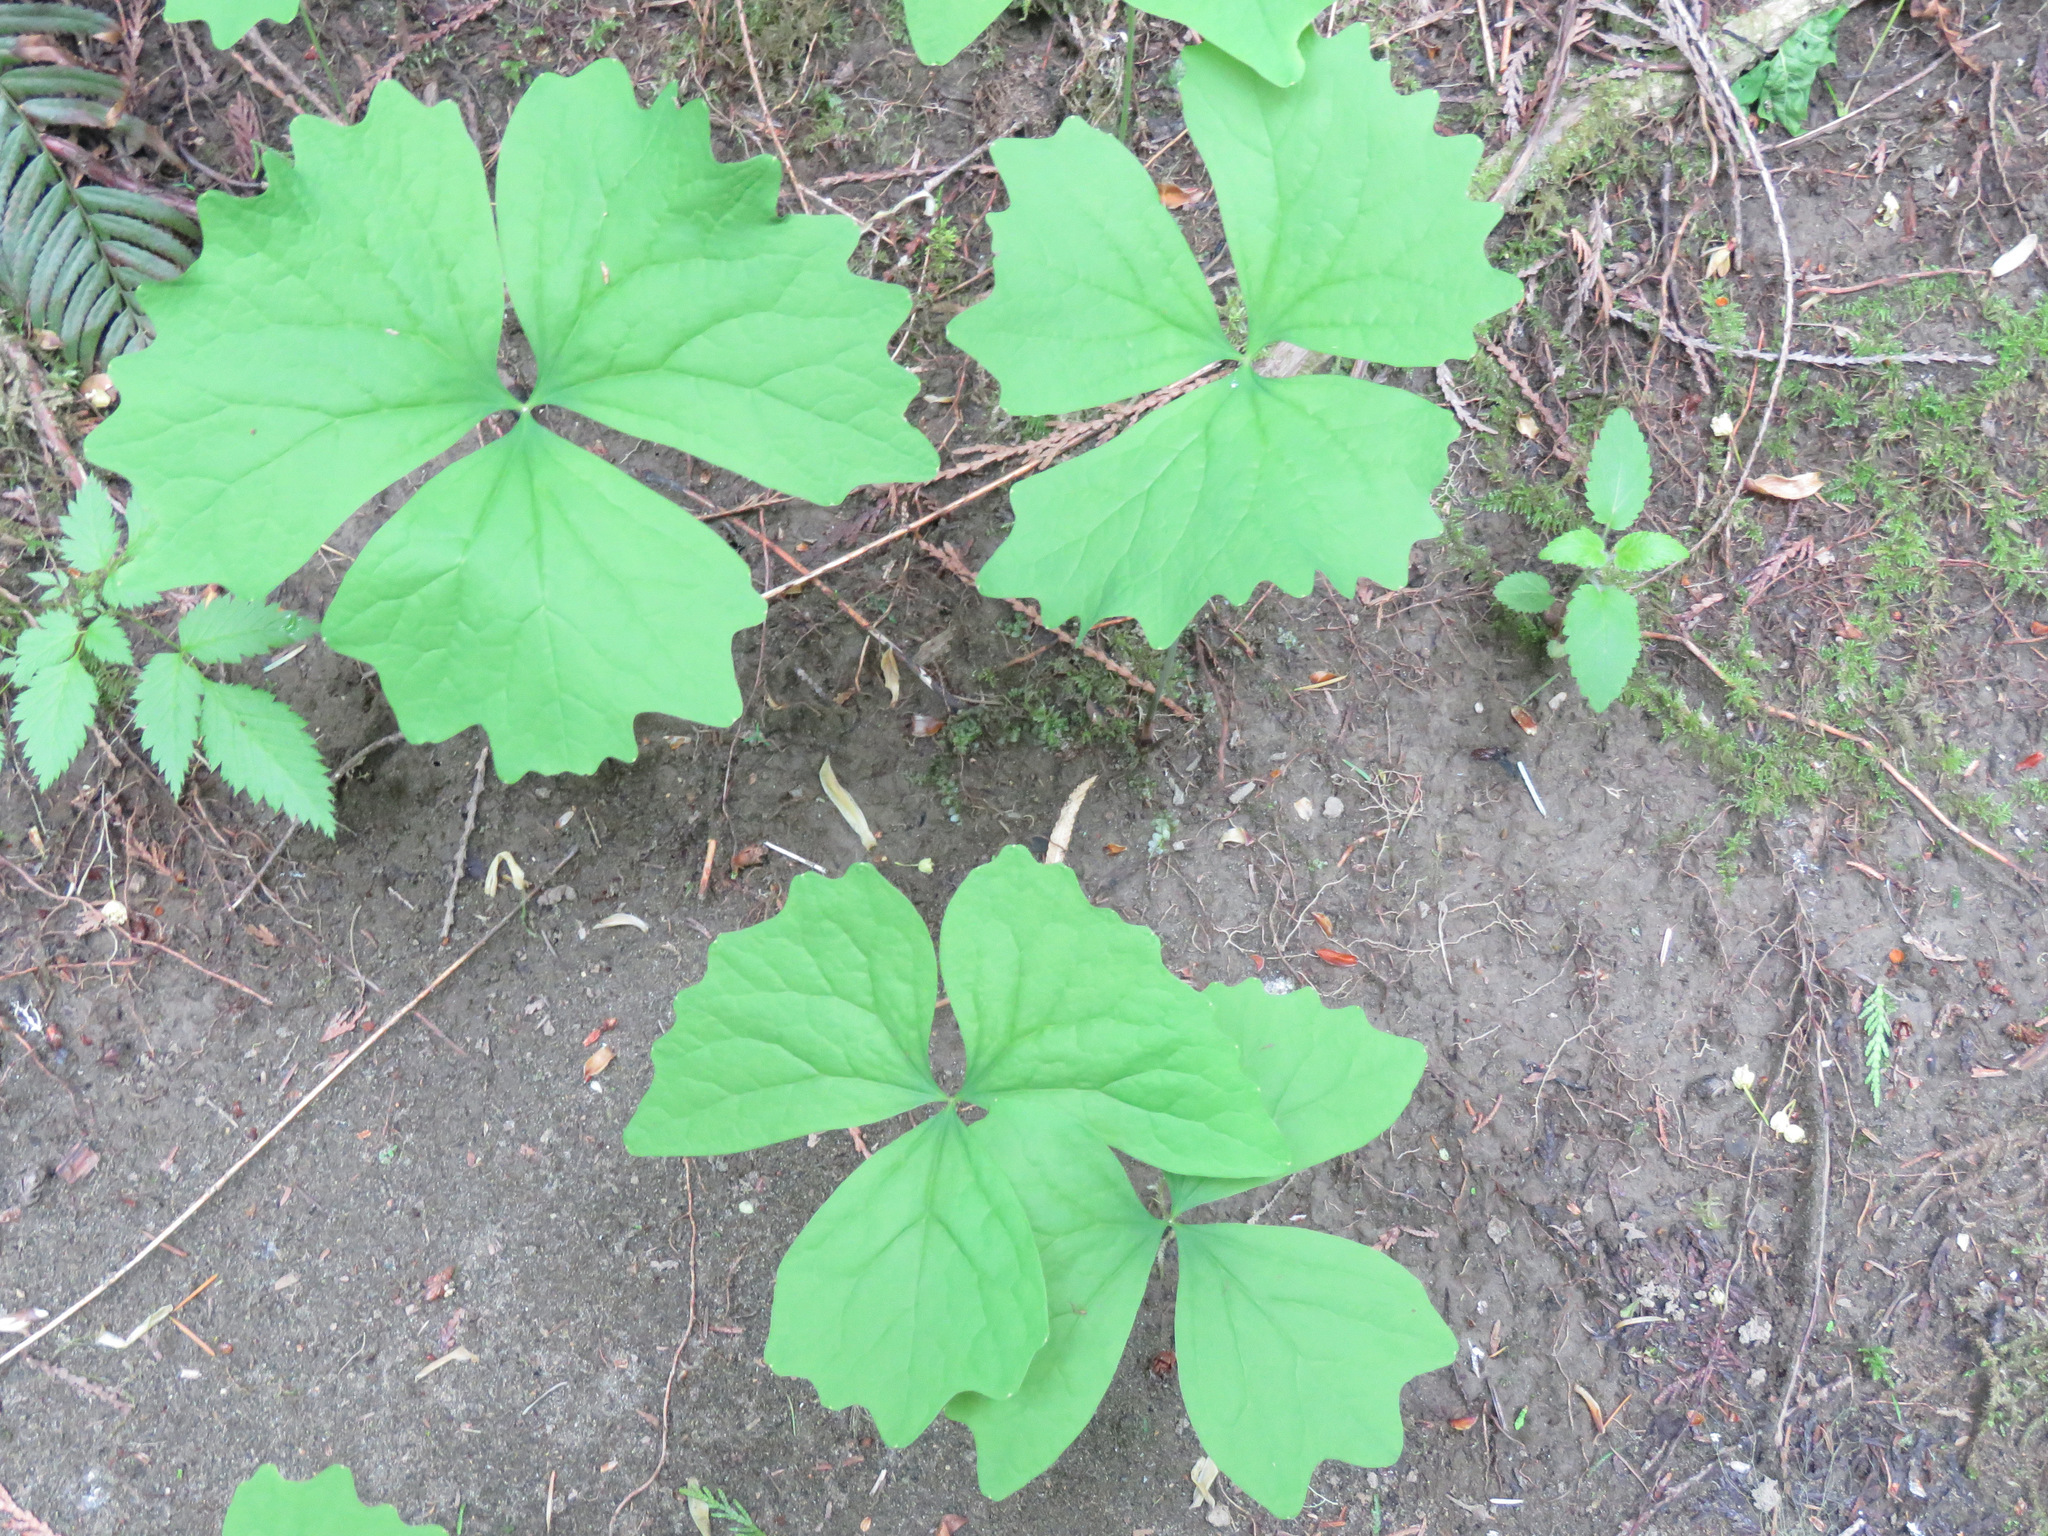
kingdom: Plantae
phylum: Tracheophyta
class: Magnoliopsida
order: Ranunculales
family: Berberidaceae
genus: Achlys
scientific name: Achlys triphylla
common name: Vanilla-leaf
